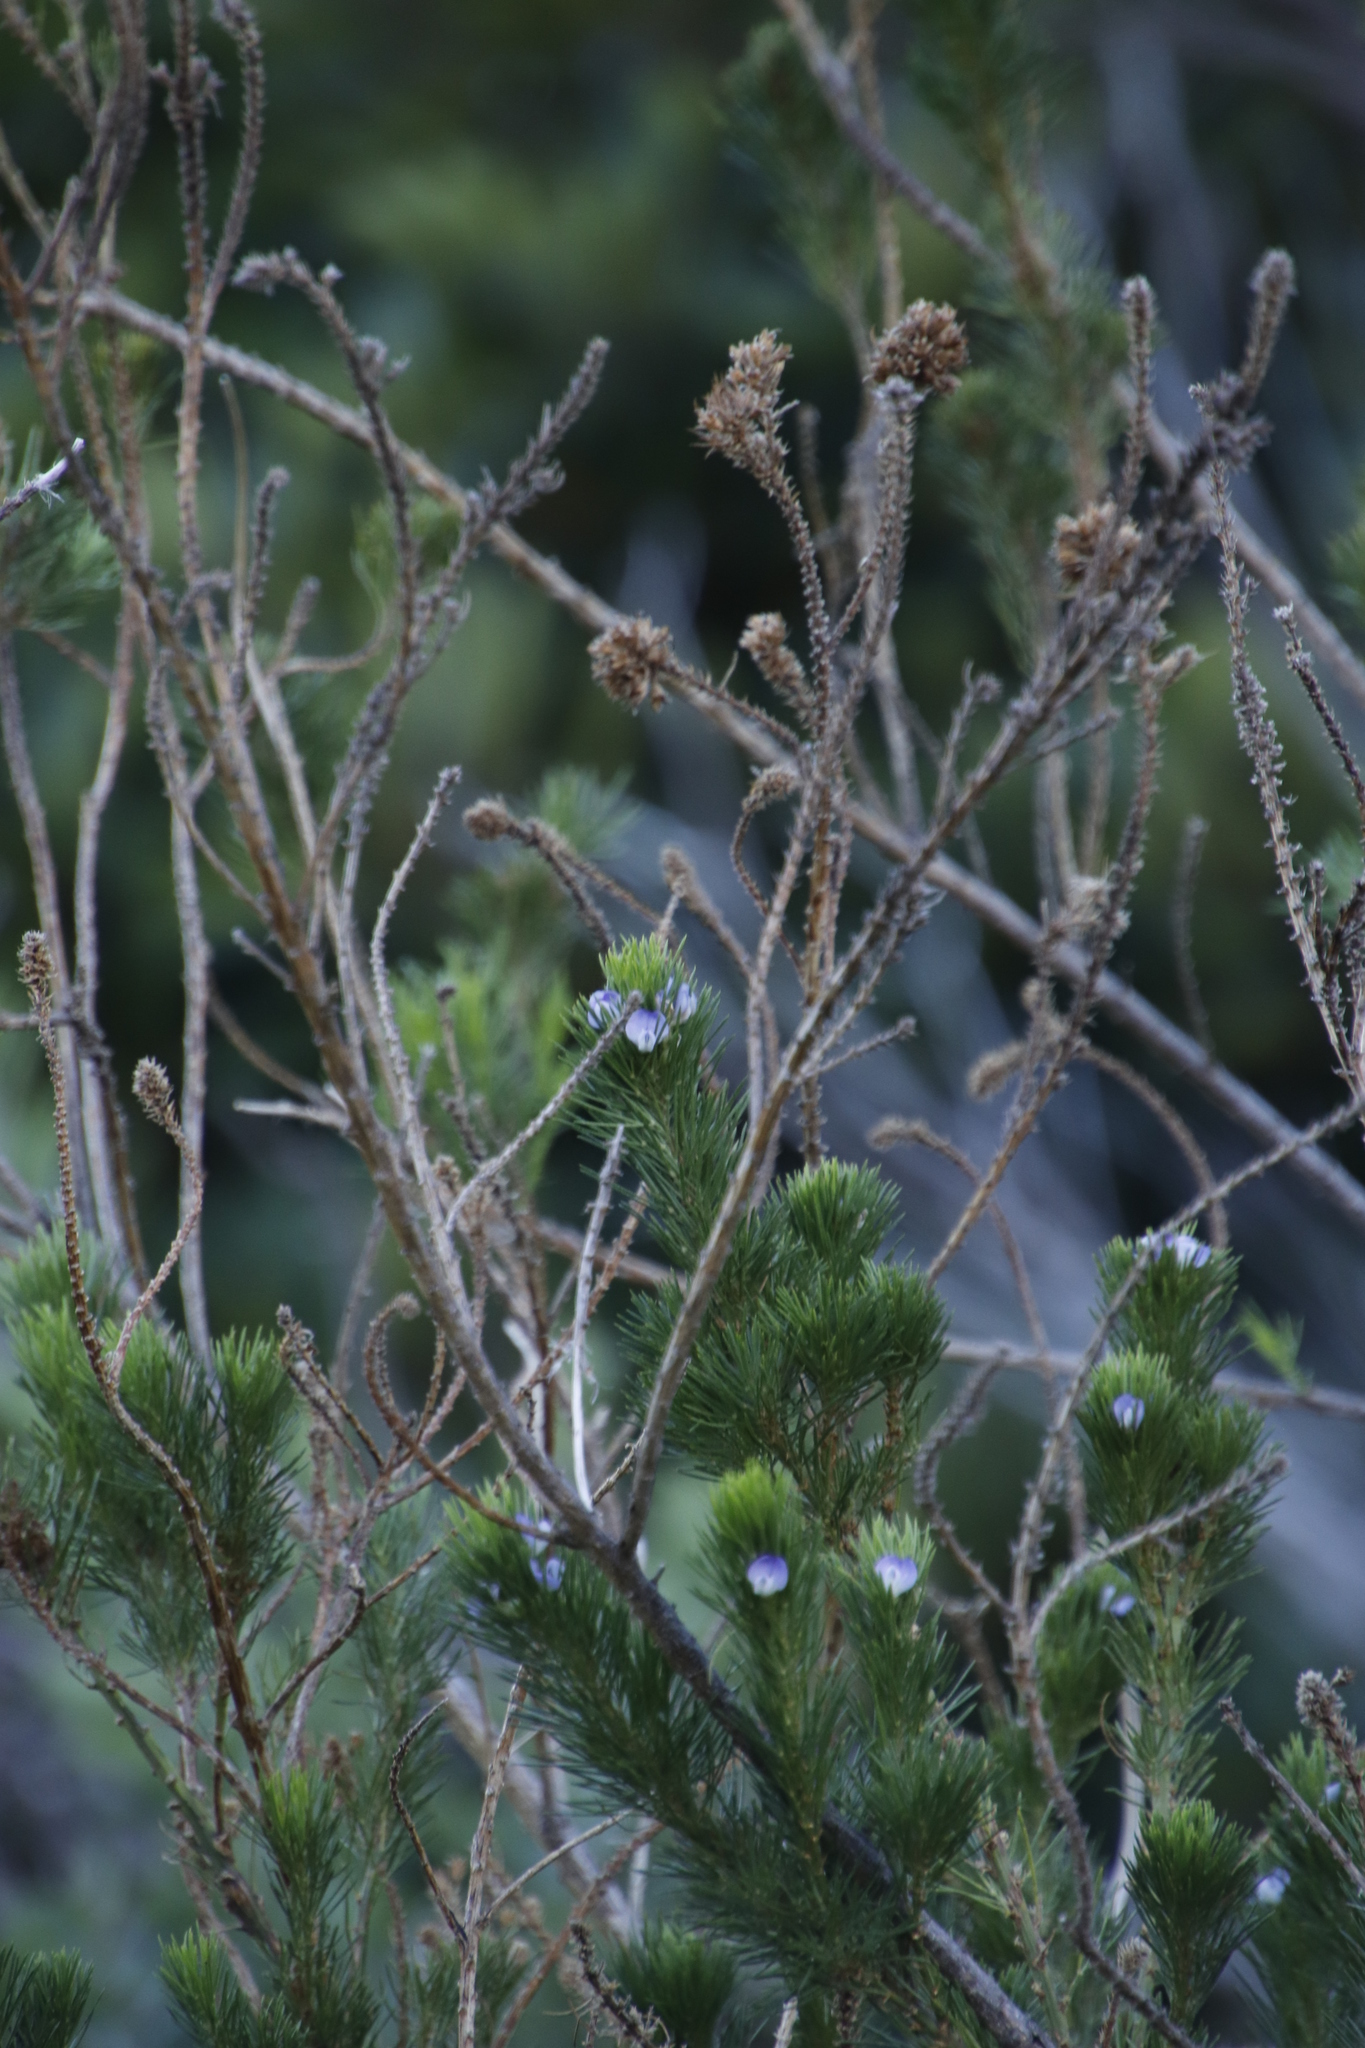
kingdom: Plantae
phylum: Tracheophyta
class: Magnoliopsida
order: Fabales
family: Fabaceae
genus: Psoralea
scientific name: Psoralea pinnata
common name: African scurfpea
